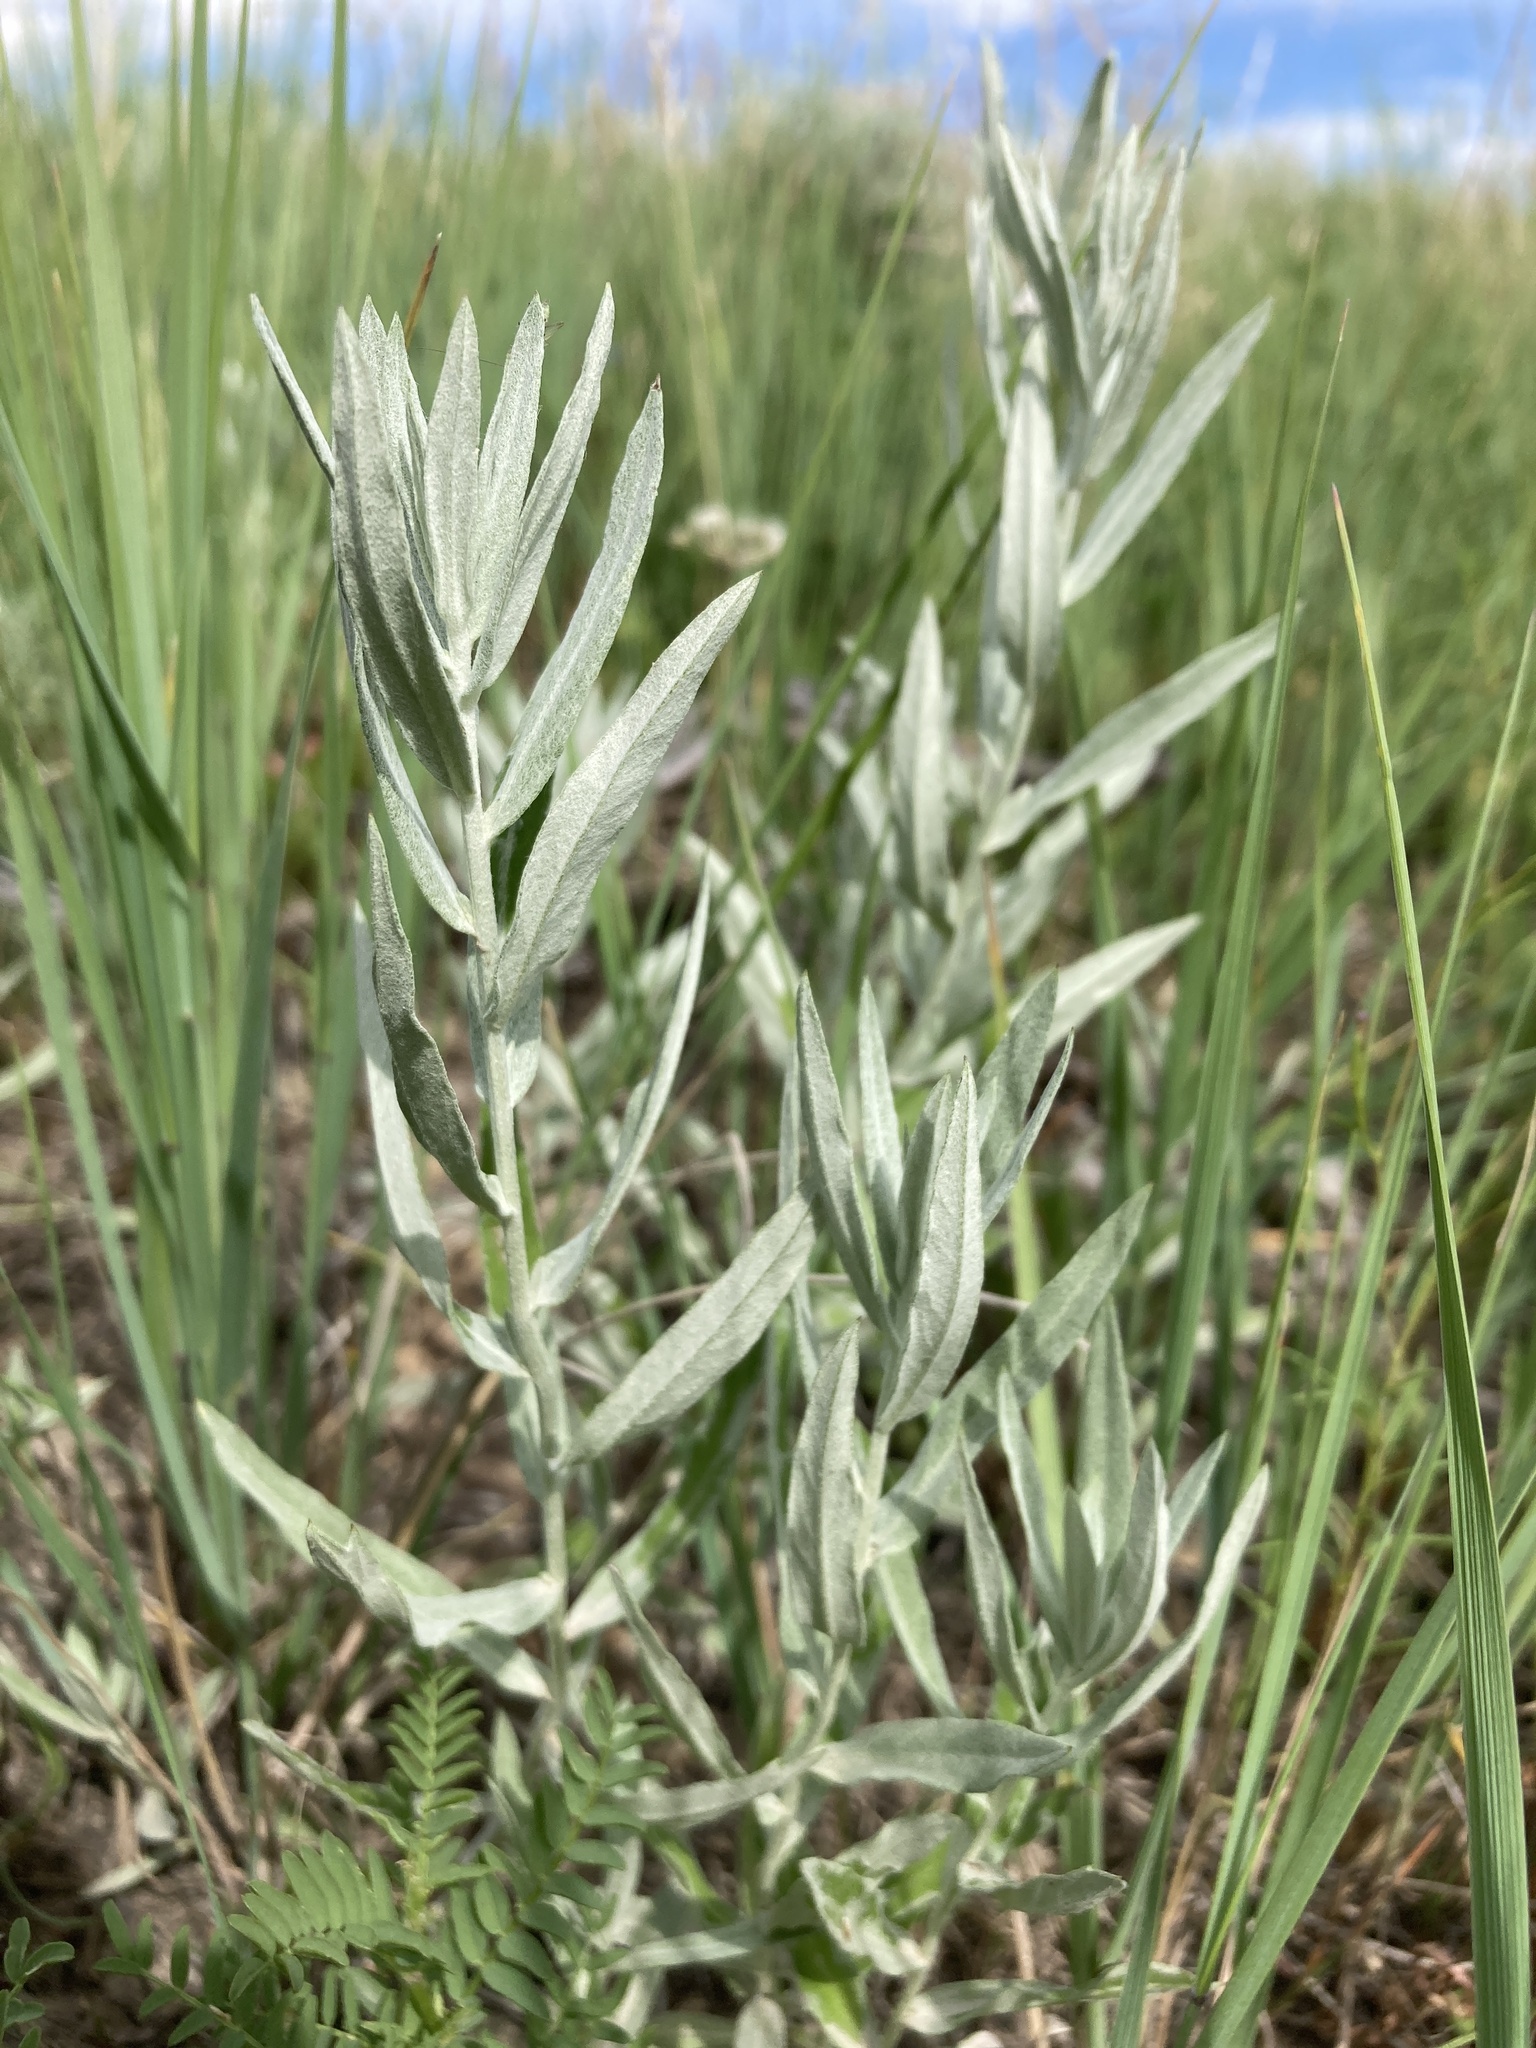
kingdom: Plantae
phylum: Tracheophyta
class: Magnoliopsida
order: Asterales
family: Asteraceae
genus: Artemisia
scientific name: Artemisia ludoviciana
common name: Western mugwort
